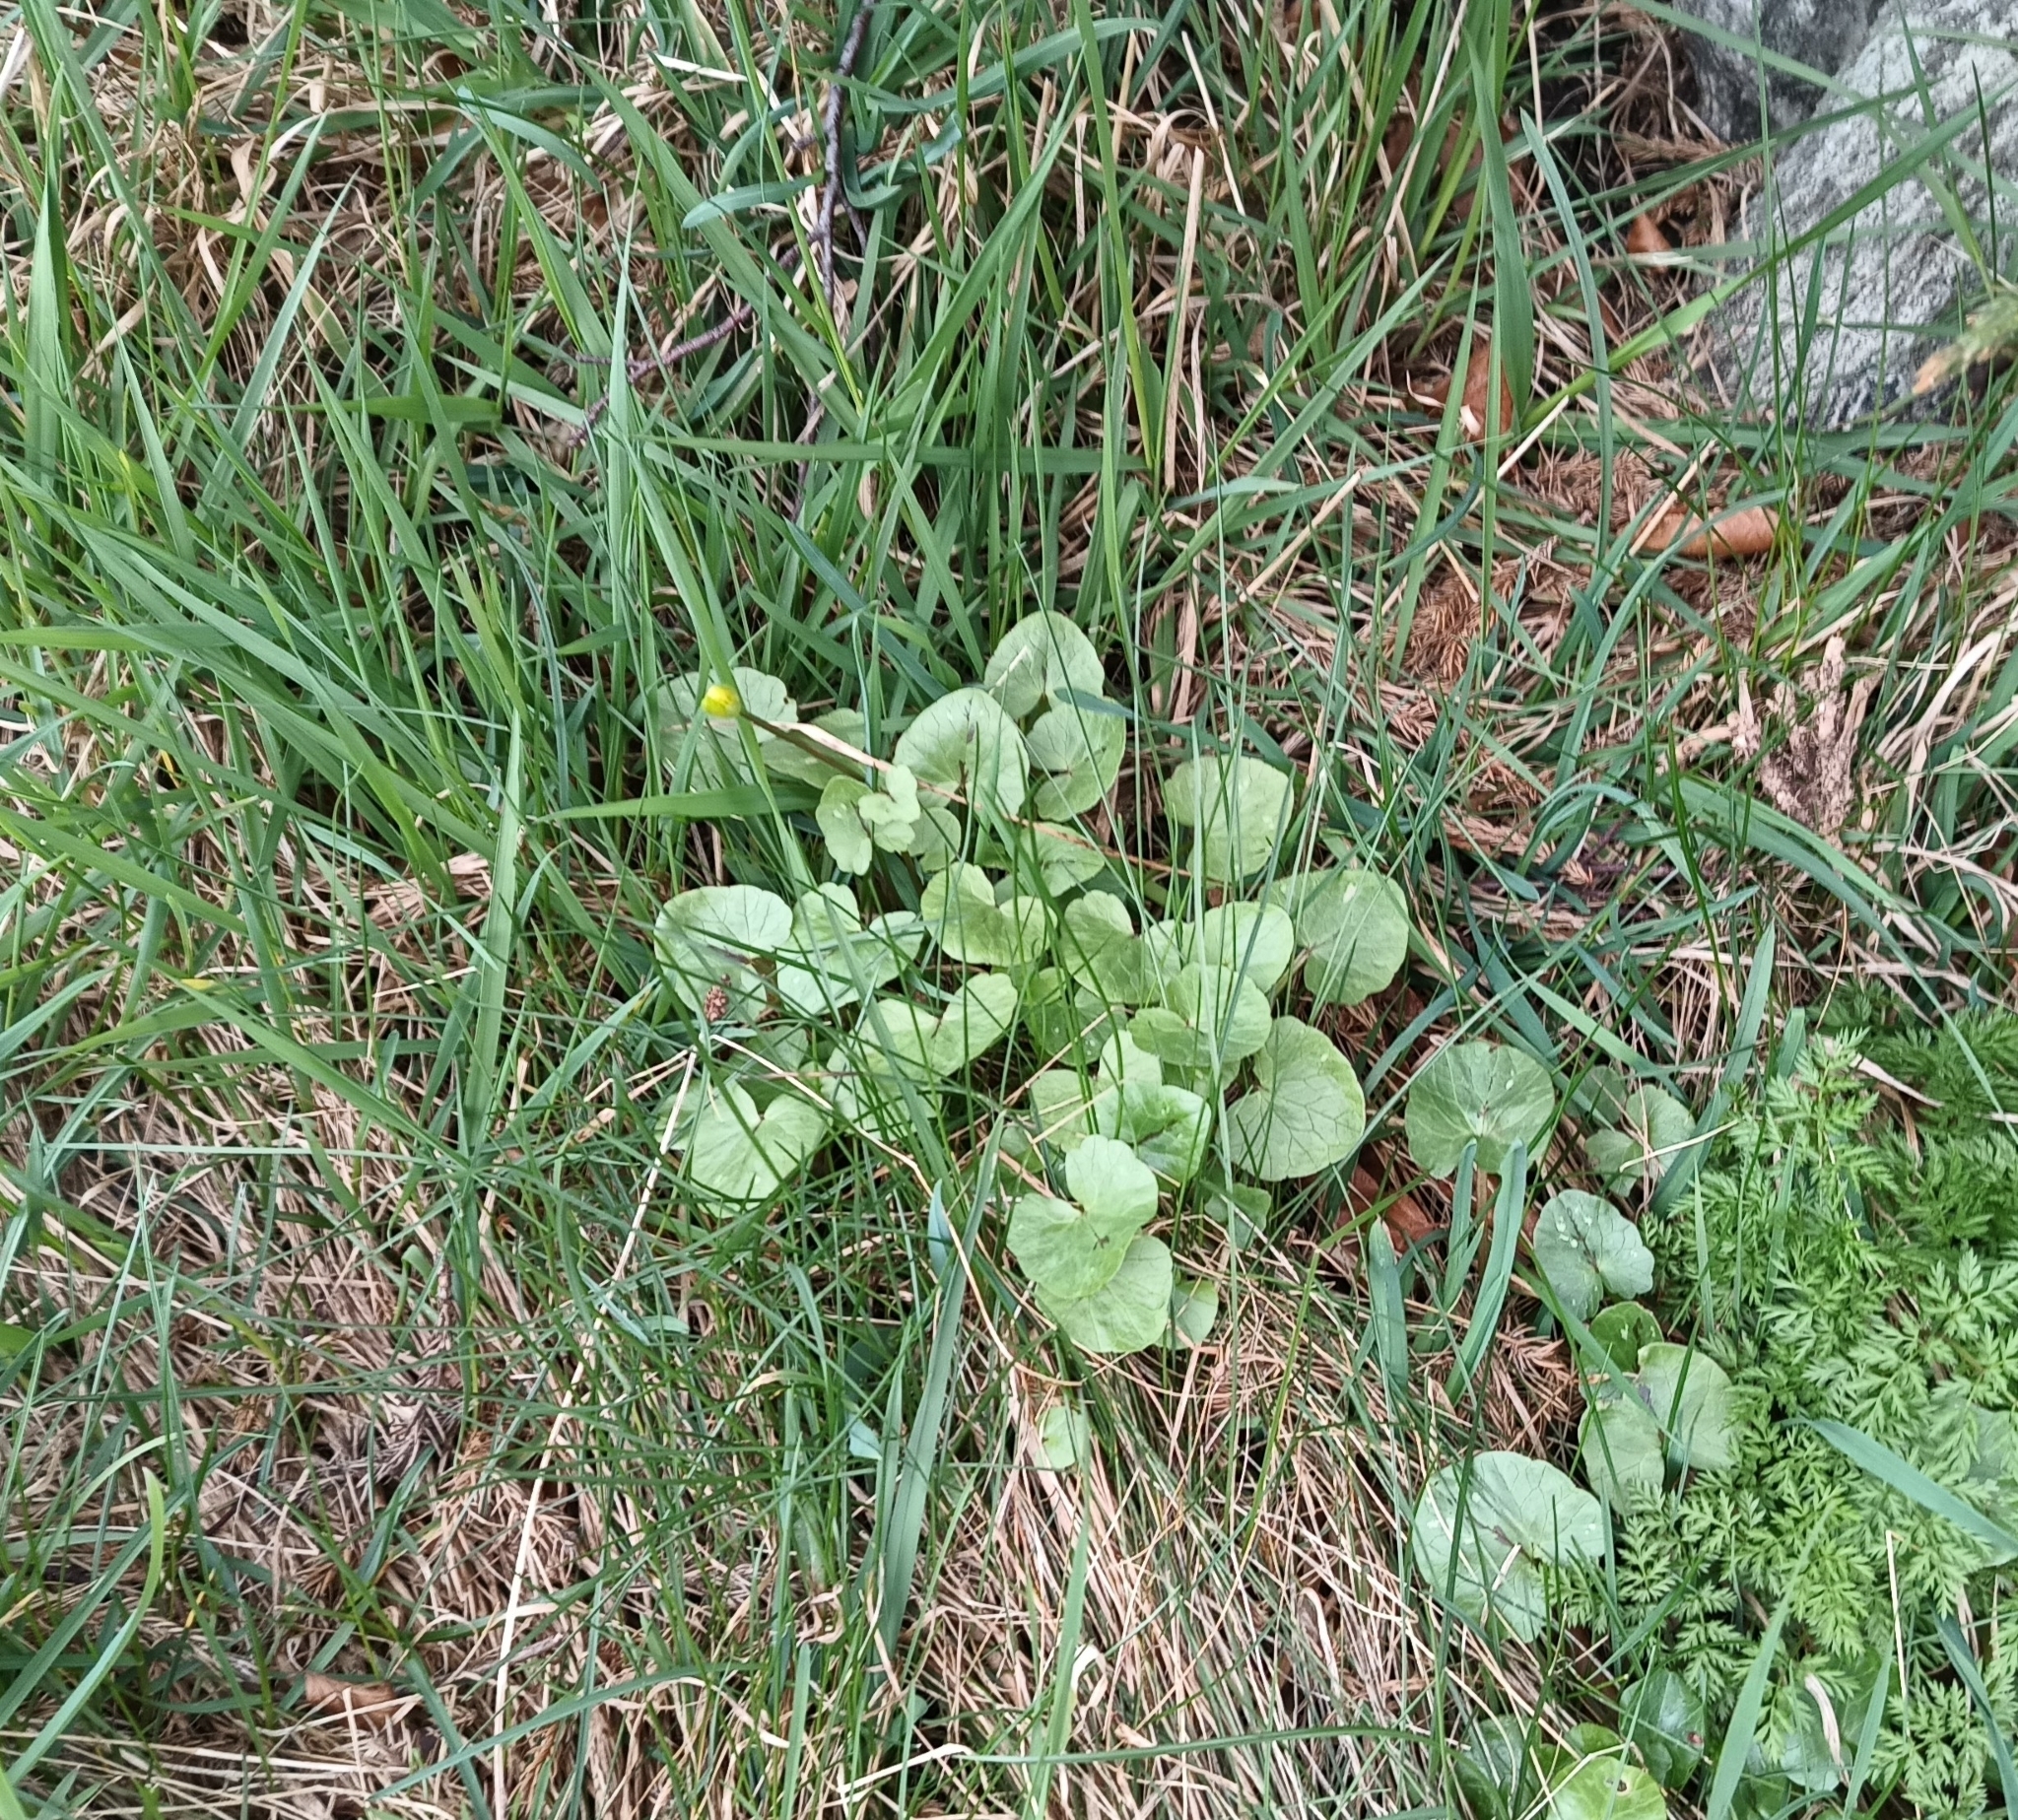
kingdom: Plantae
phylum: Tracheophyta
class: Magnoliopsida
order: Ranunculales
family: Ranunculaceae
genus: Ficaria
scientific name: Ficaria verna
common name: Lesser celandine
